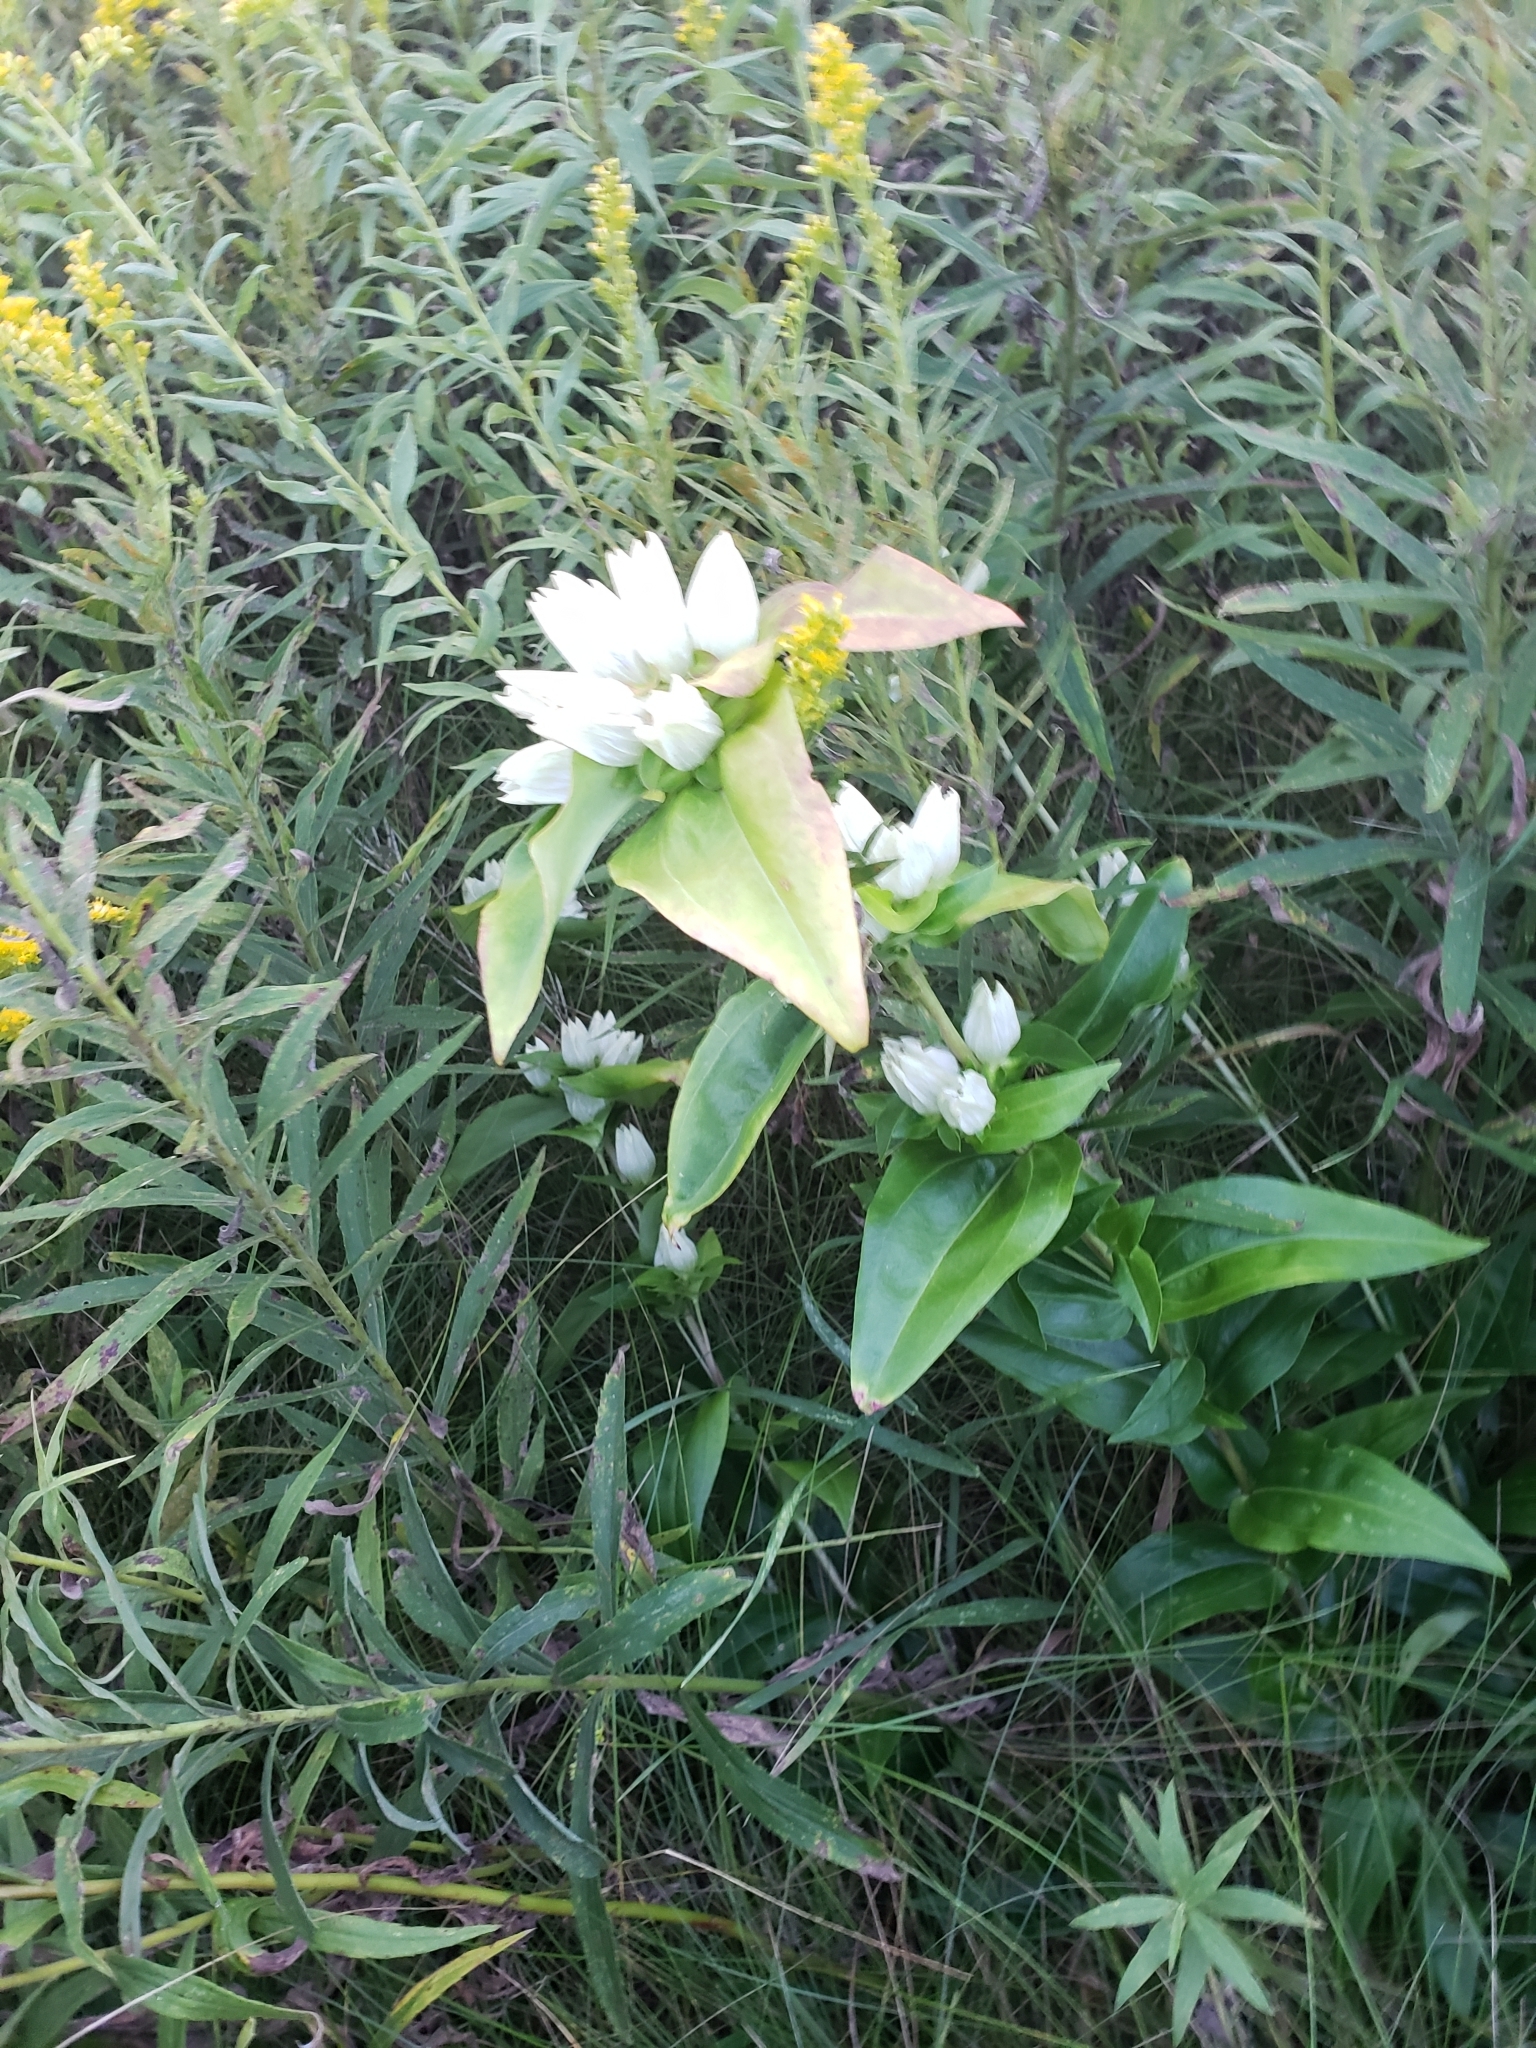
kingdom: Plantae
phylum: Tracheophyta
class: Magnoliopsida
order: Gentianales
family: Gentianaceae
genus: Gentiana
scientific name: Gentiana alba
